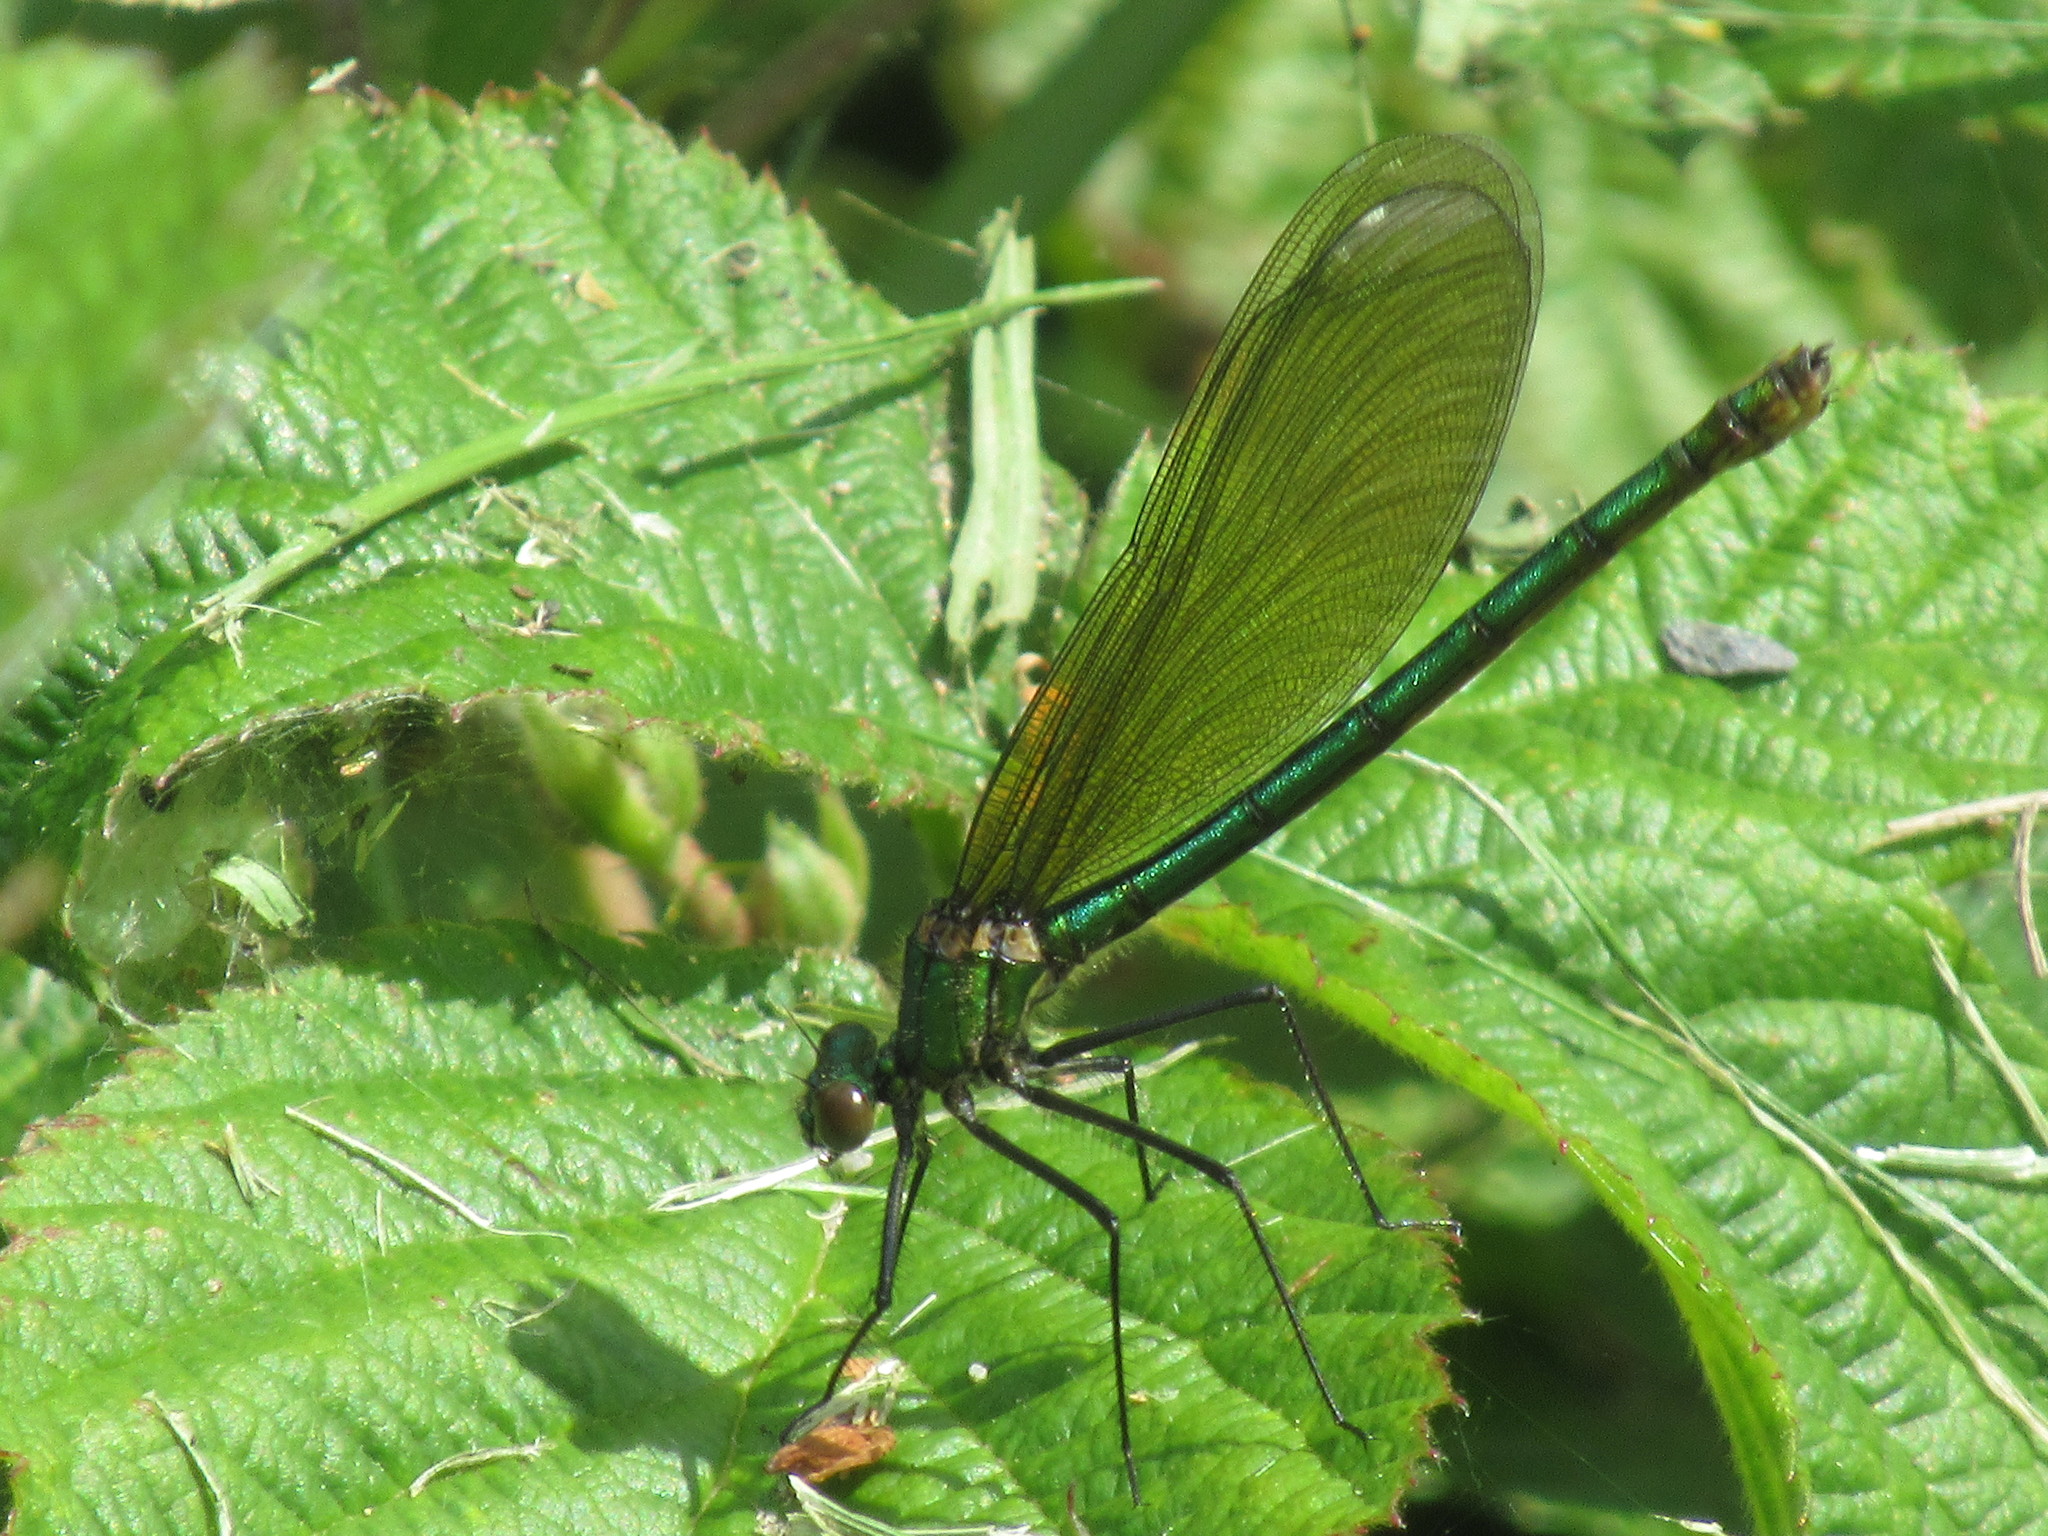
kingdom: Animalia
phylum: Arthropoda
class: Insecta
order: Odonata
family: Calopterygidae
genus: Calopteryx
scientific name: Calopteryx splendens
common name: Banded demoiselle
